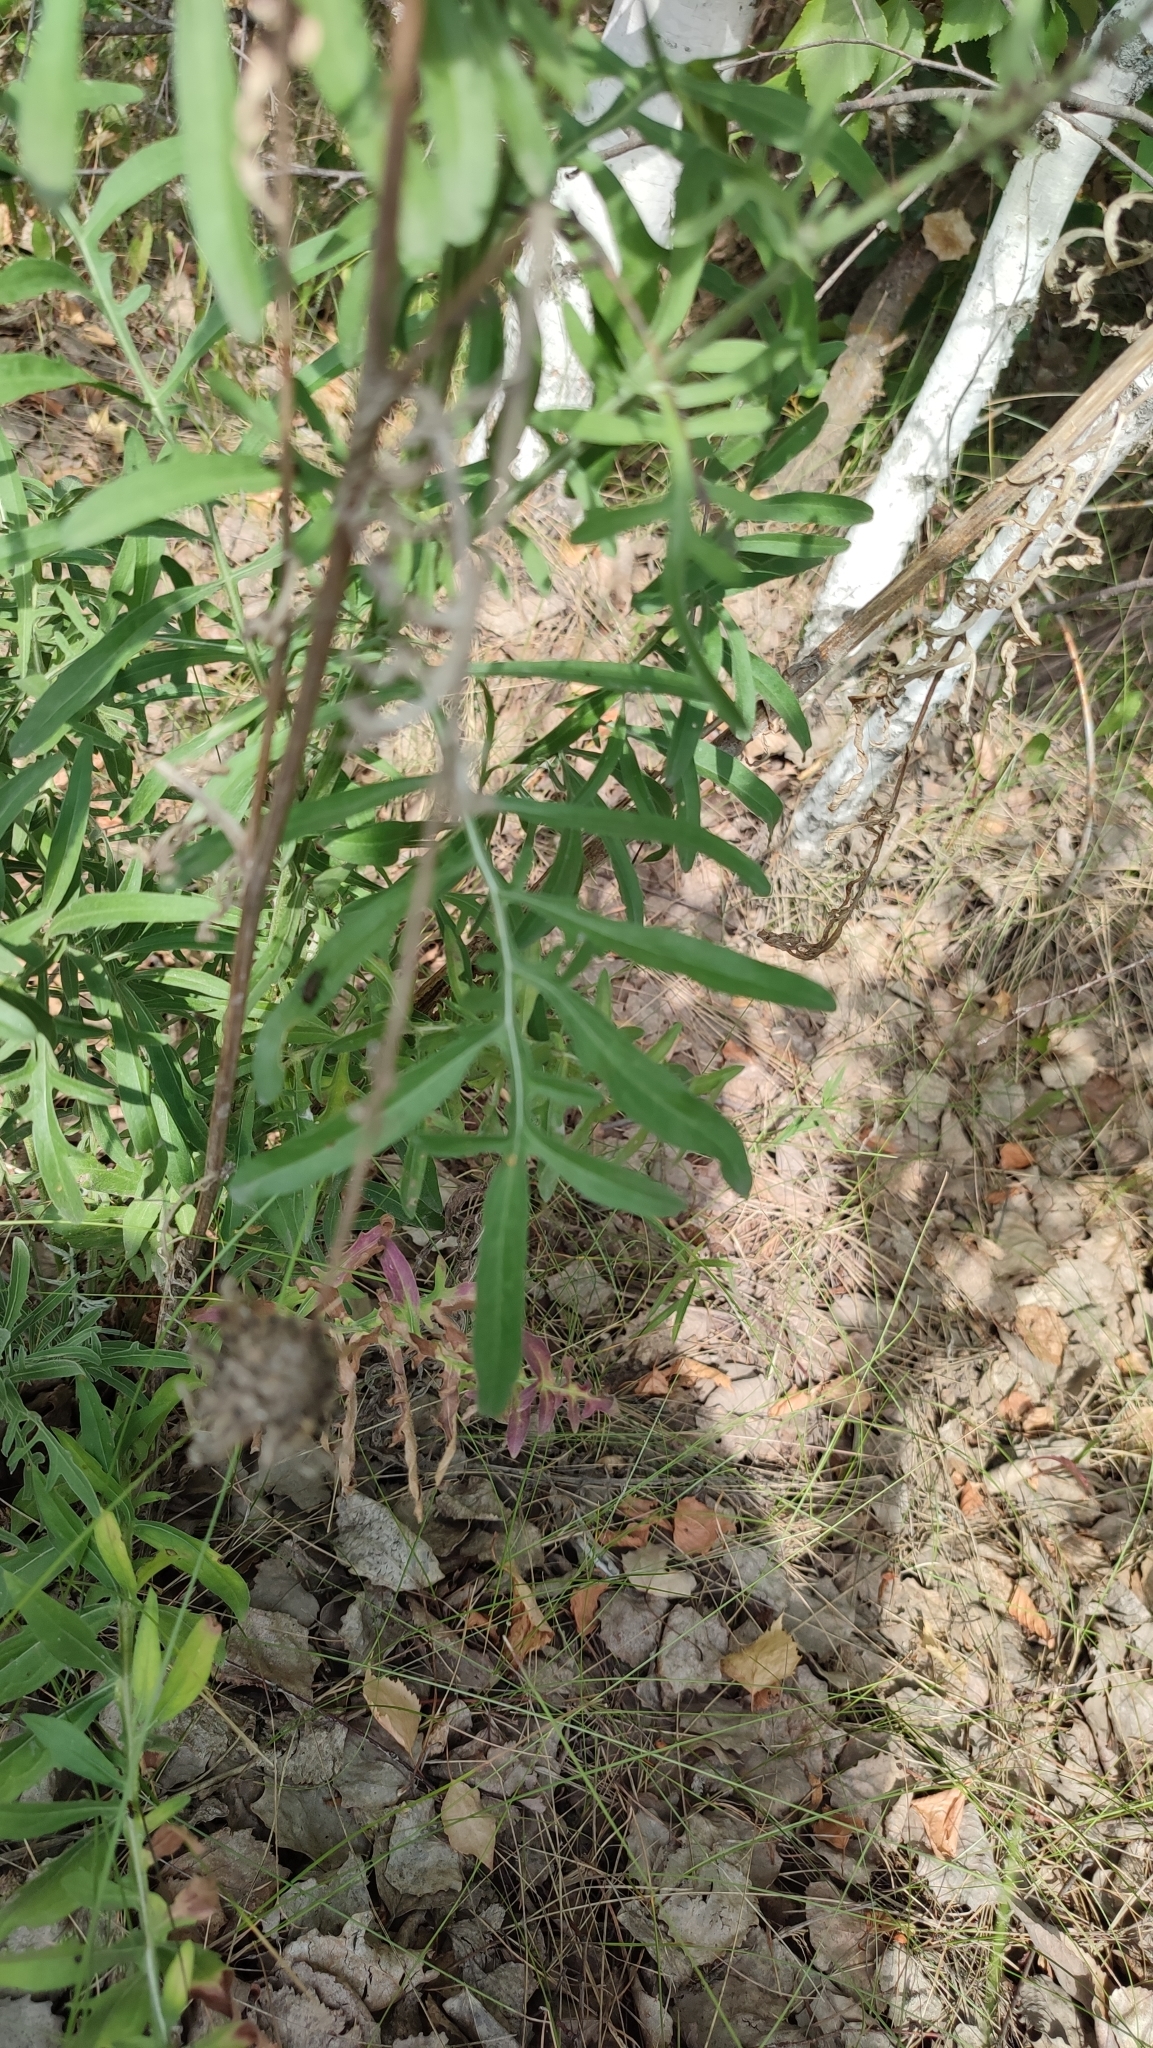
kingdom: Plantae
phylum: Tracheophyta
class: Magnoliopsida
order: Asterales
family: Asteraceae
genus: Centaurea
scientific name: Centaurea scabiosa
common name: Greater knapweed
